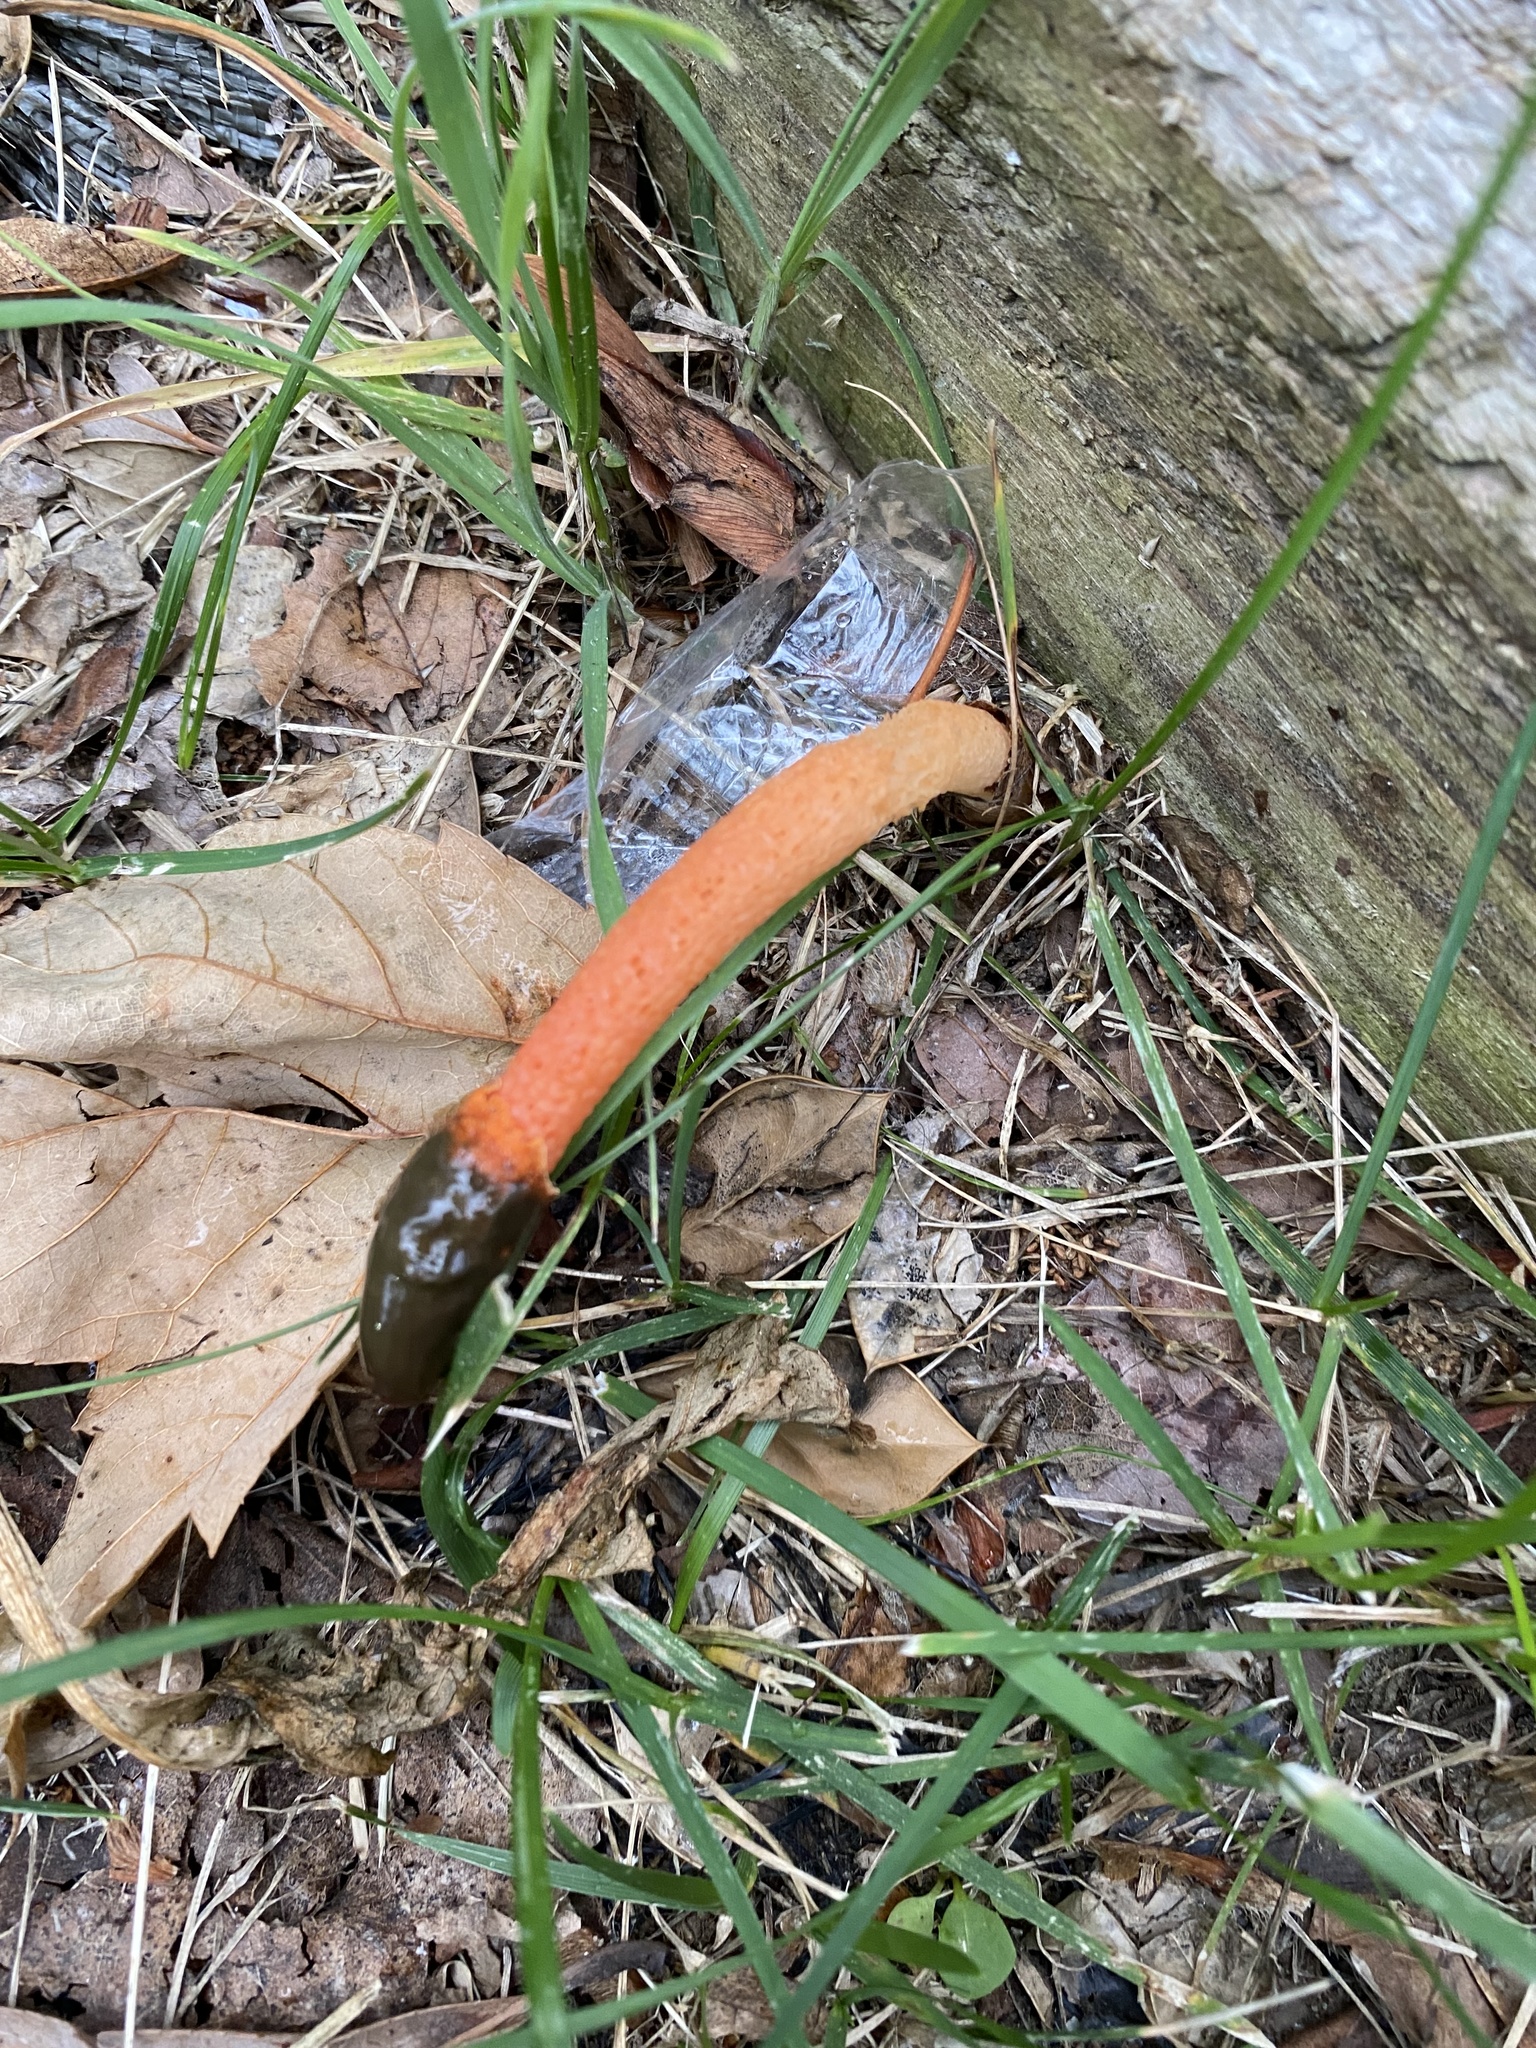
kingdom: Fungi
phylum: Basidiomycota
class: Agaricomycetes
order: Phallales
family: Phallaceae
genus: Phallus
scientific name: Phallus rugulosus
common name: Wrinkly stinkhorn
